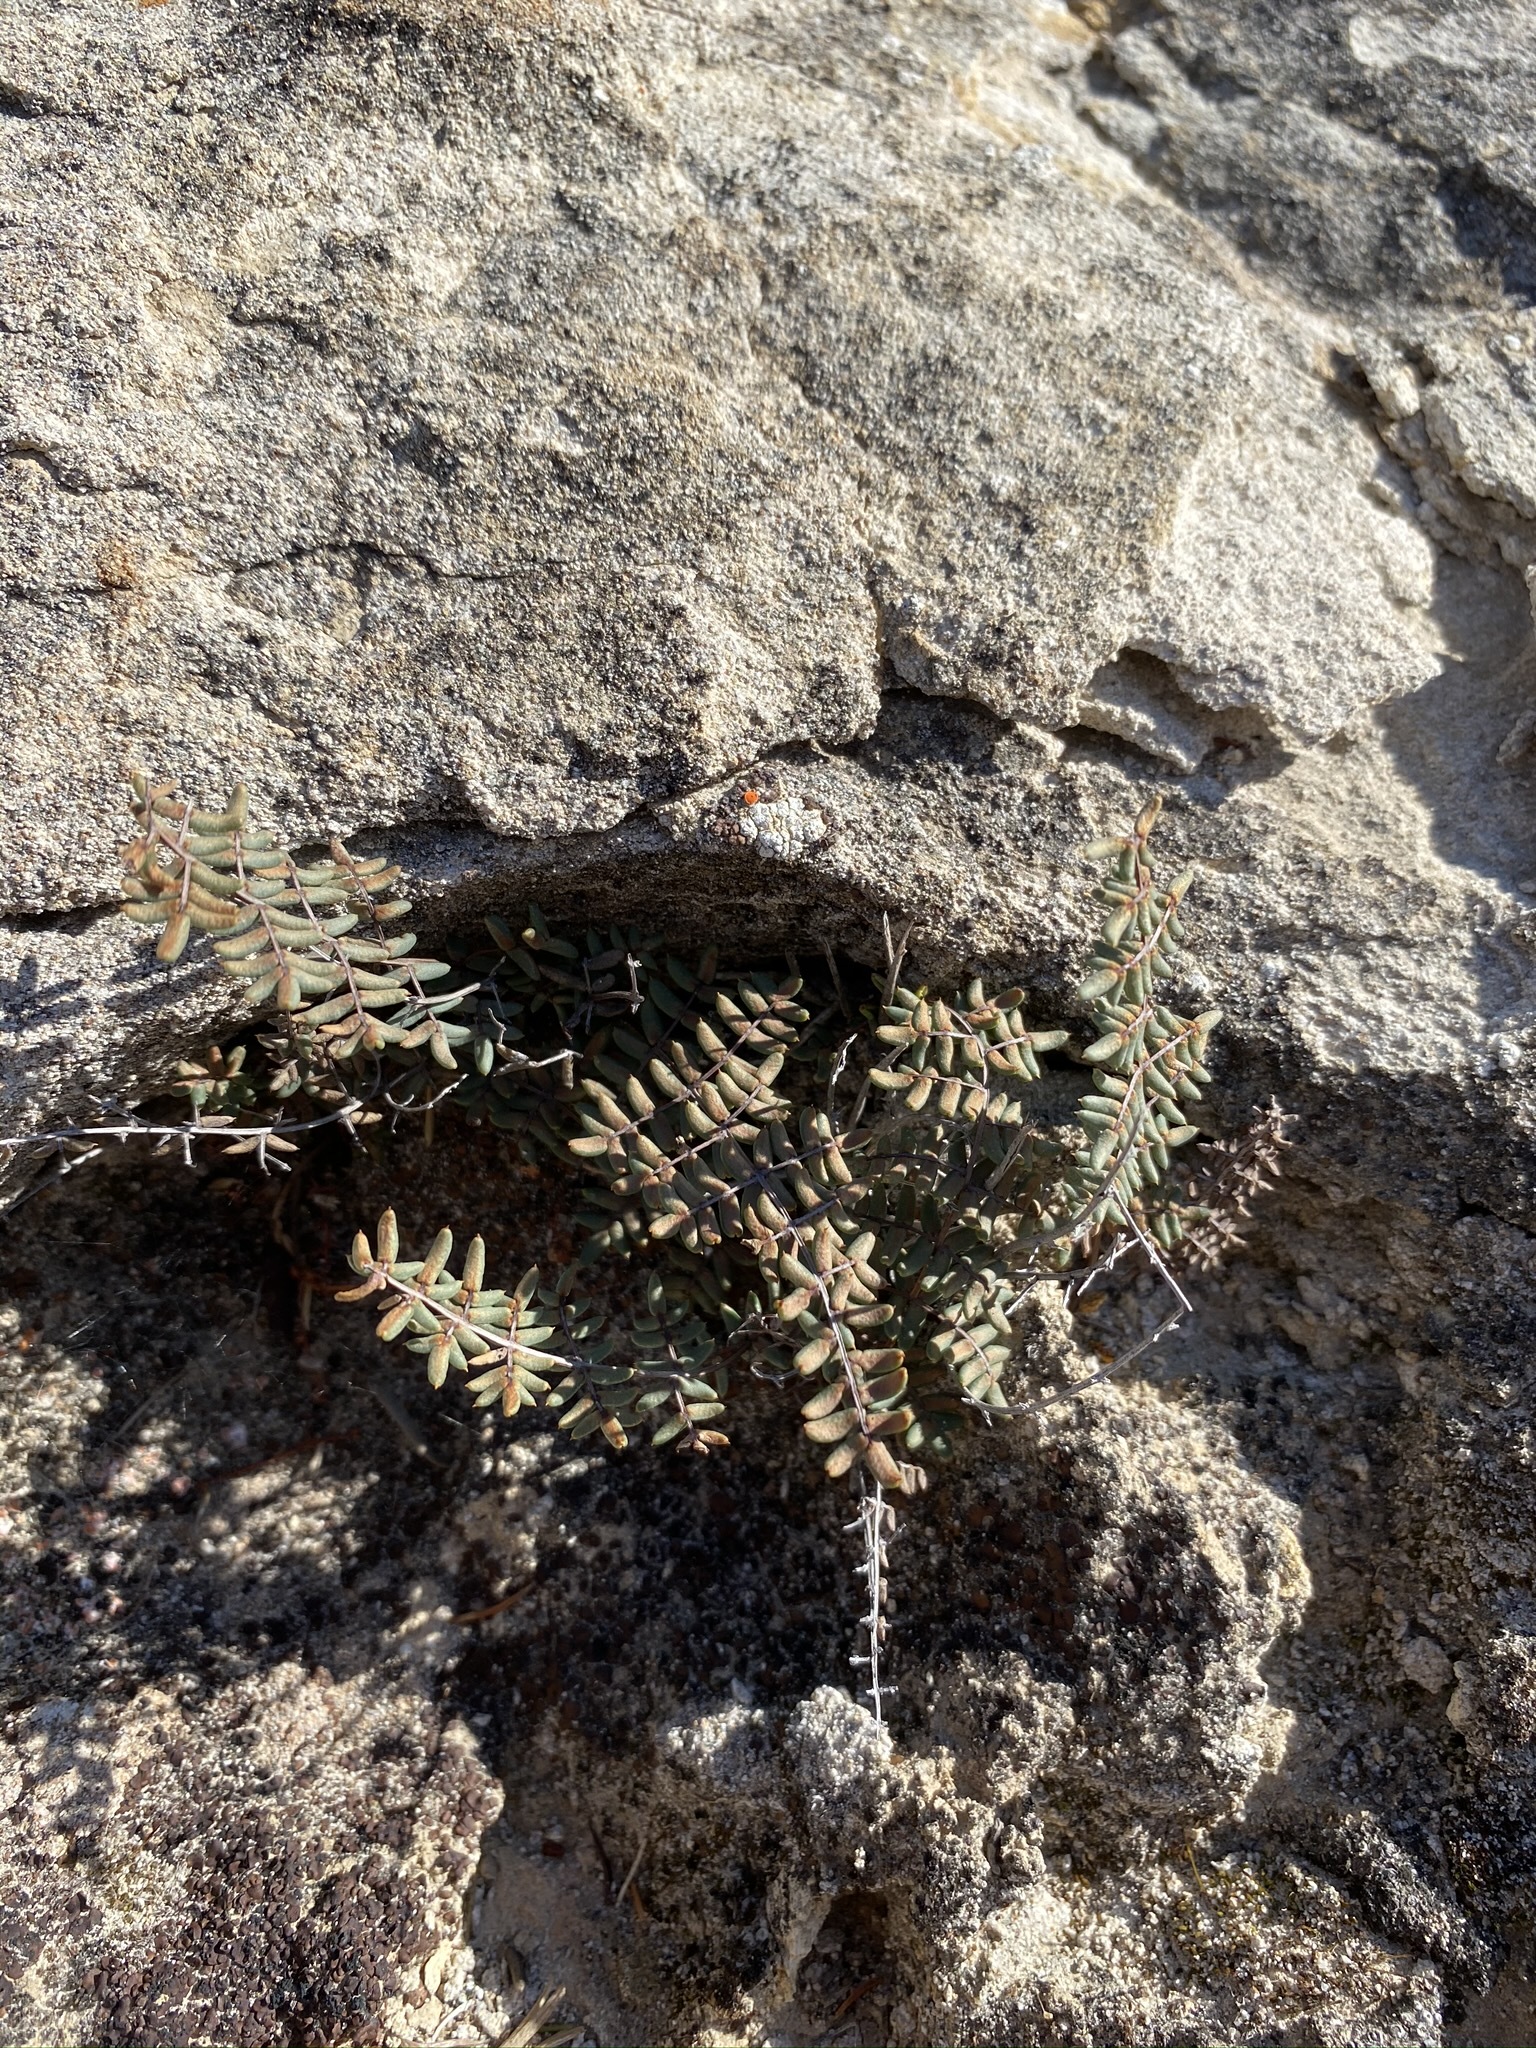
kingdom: Plantae
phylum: Tracheophyta
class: Polypodiopsida
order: Polypodiales
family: Pteridaceae
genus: Pellaea
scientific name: Pellaea mucronata
